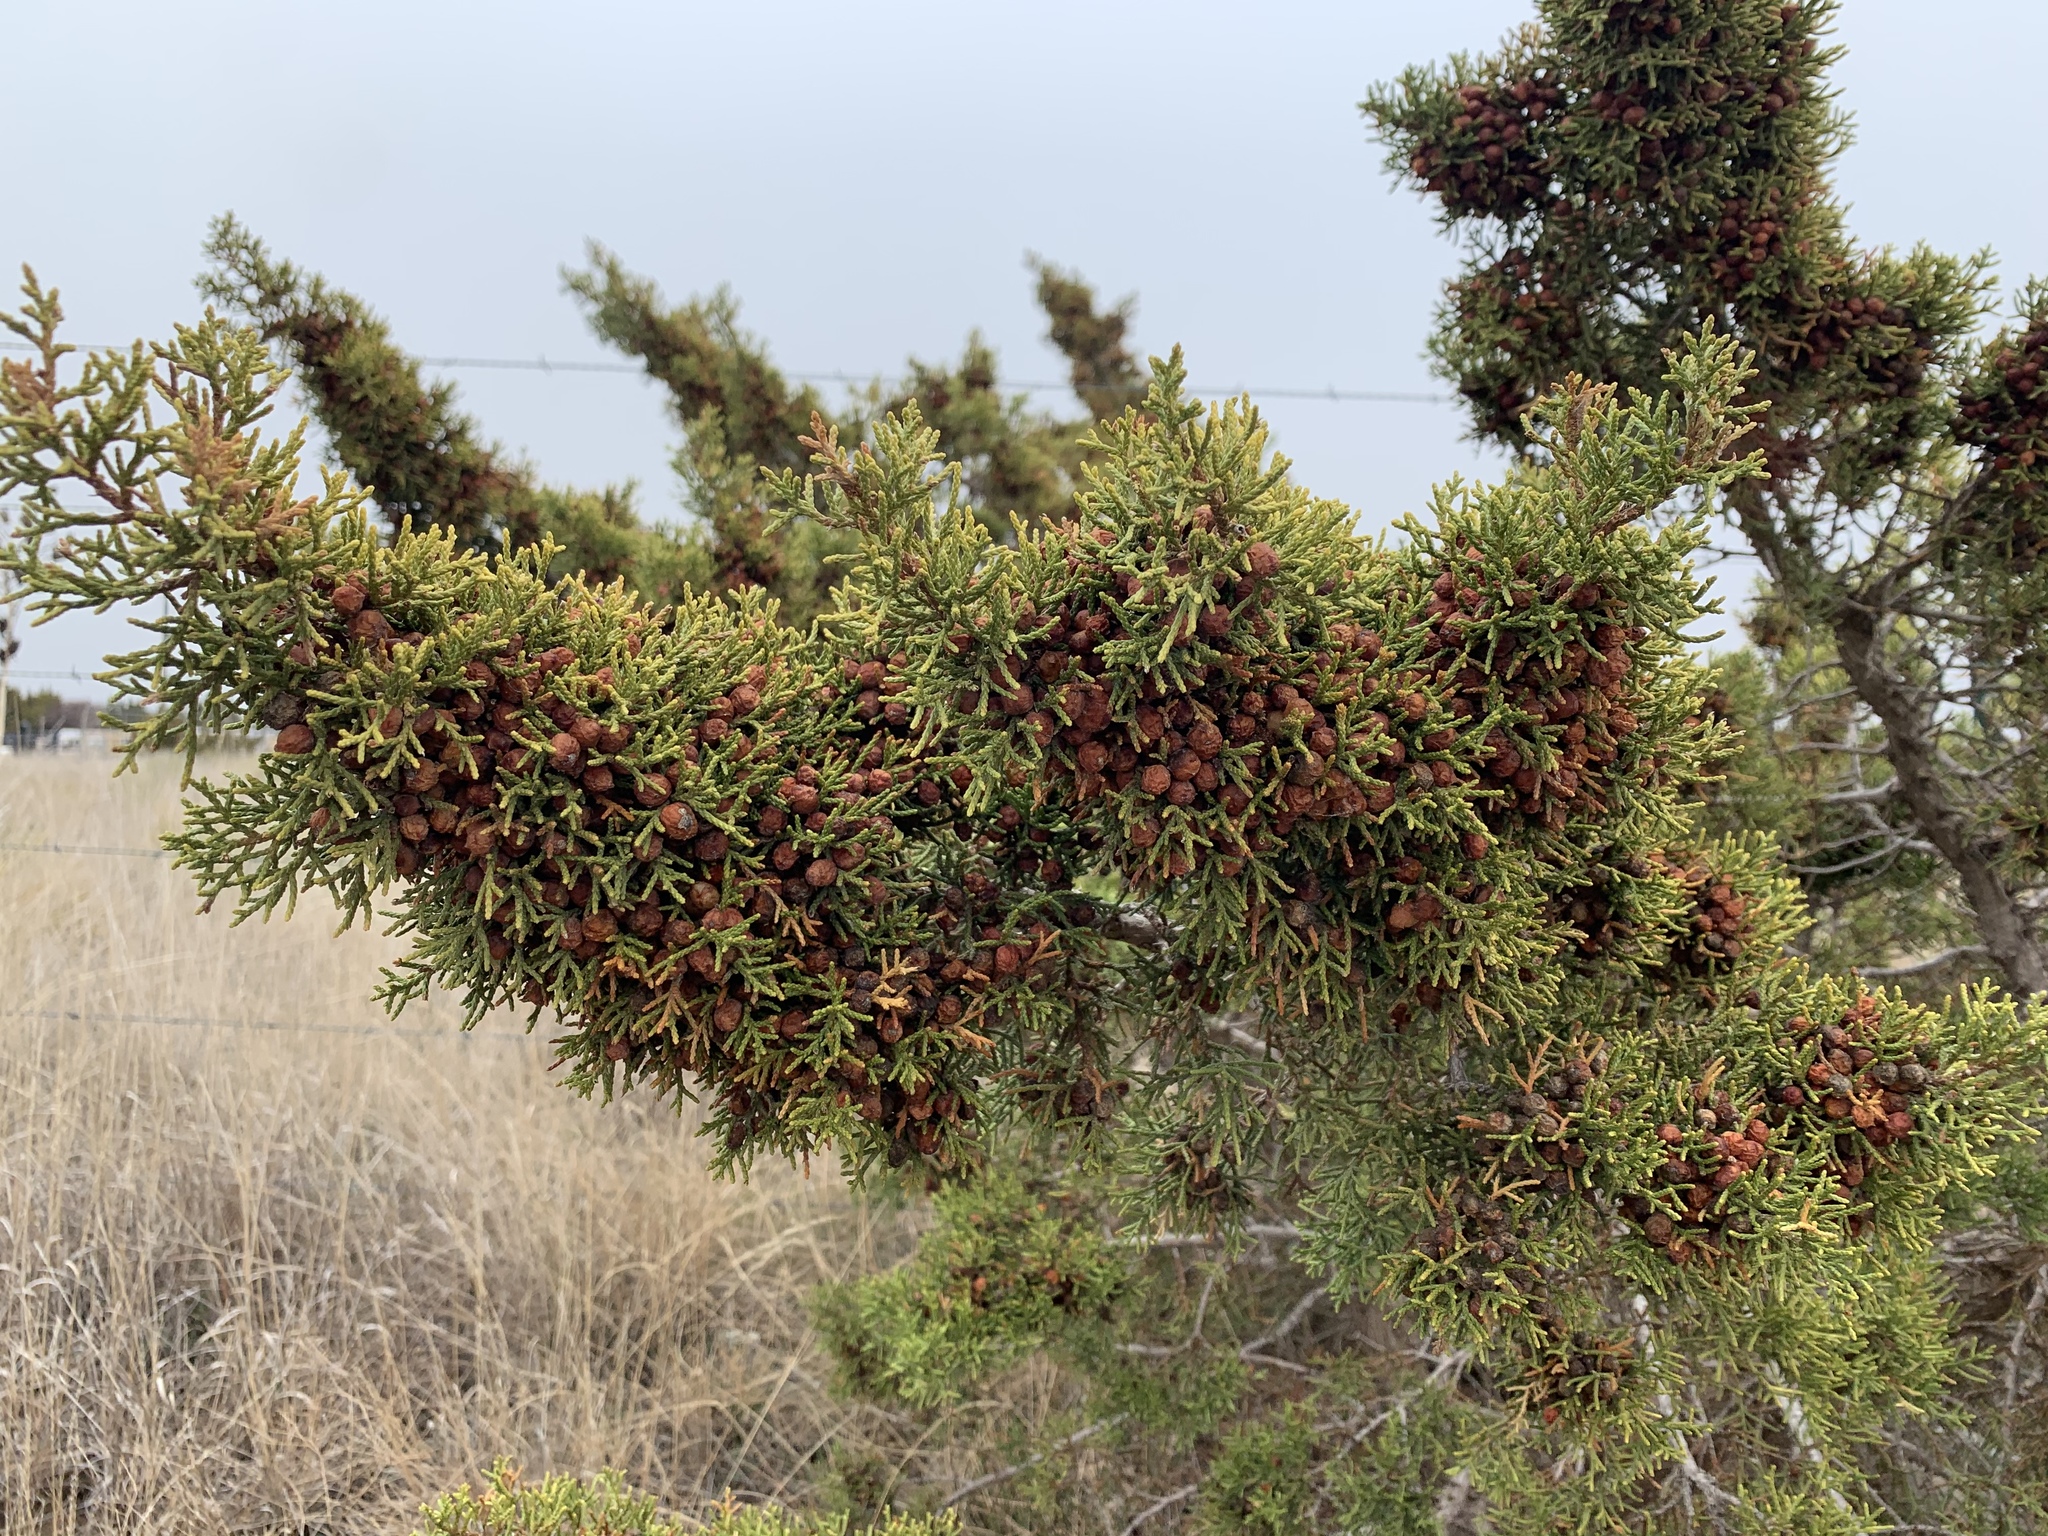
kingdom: Plantae
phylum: Tracheophyta
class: Pinopsida
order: Pinales
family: Cupressaceae
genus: Juniperus
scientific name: Juniperus pinchotii
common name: Pinchot juniper
